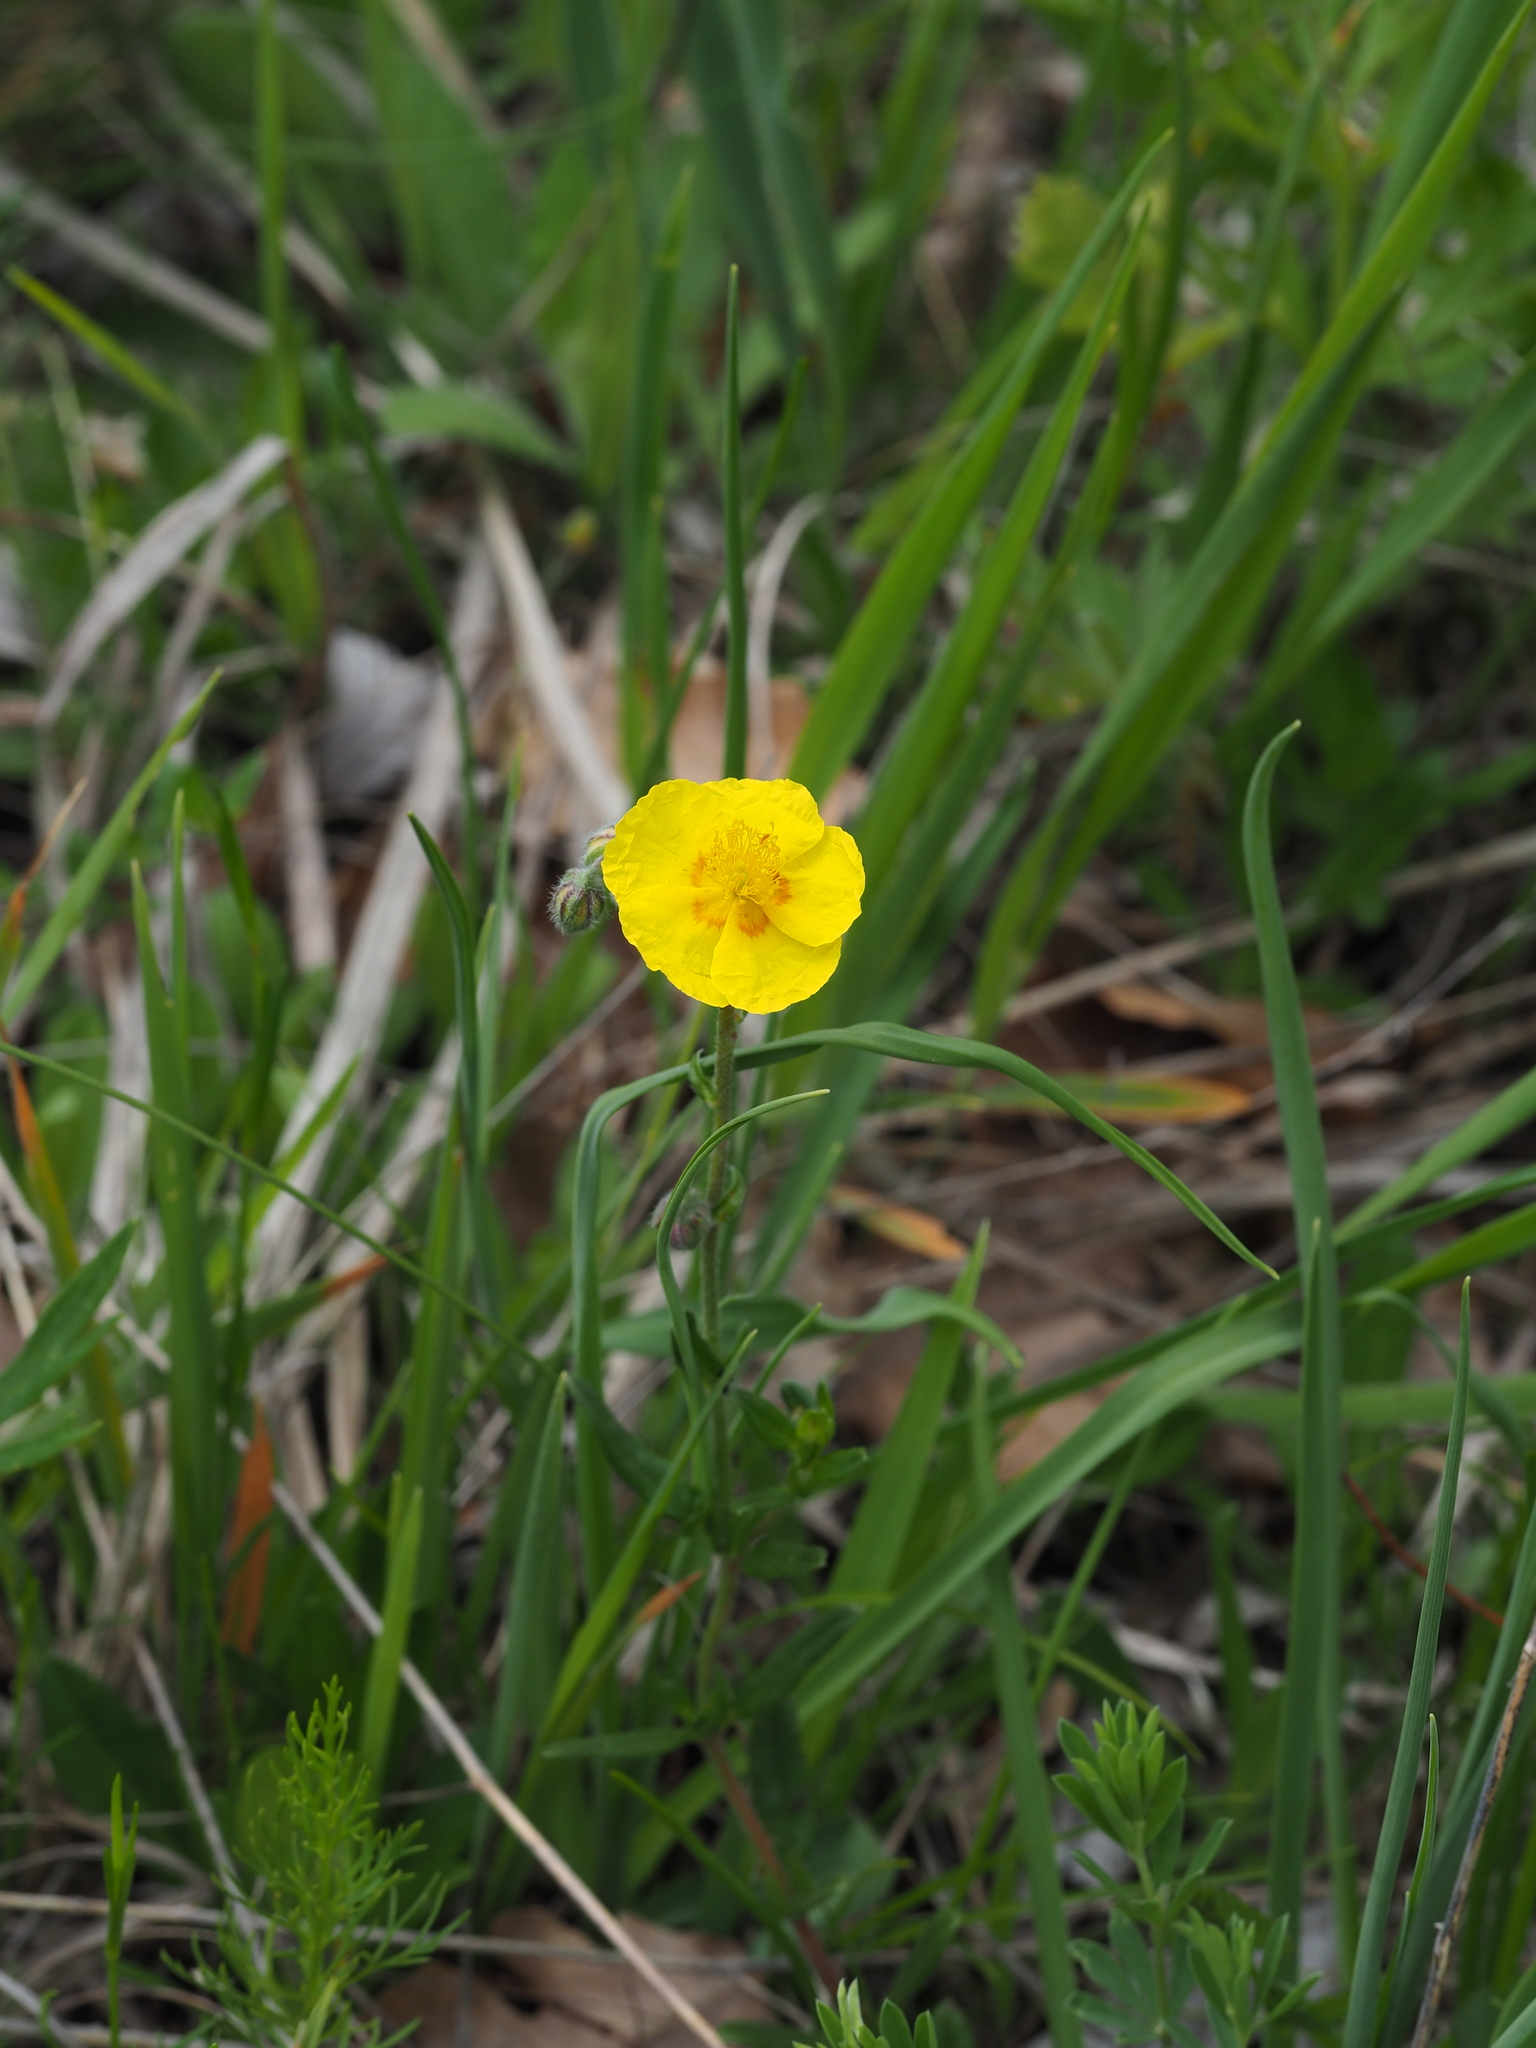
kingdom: Plantae
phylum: Tracheophyta
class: Magnoliopsida
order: Malvales
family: Cistaceae
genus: Helianthemum
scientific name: Helianthemum nummularium
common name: Common rock-rose
